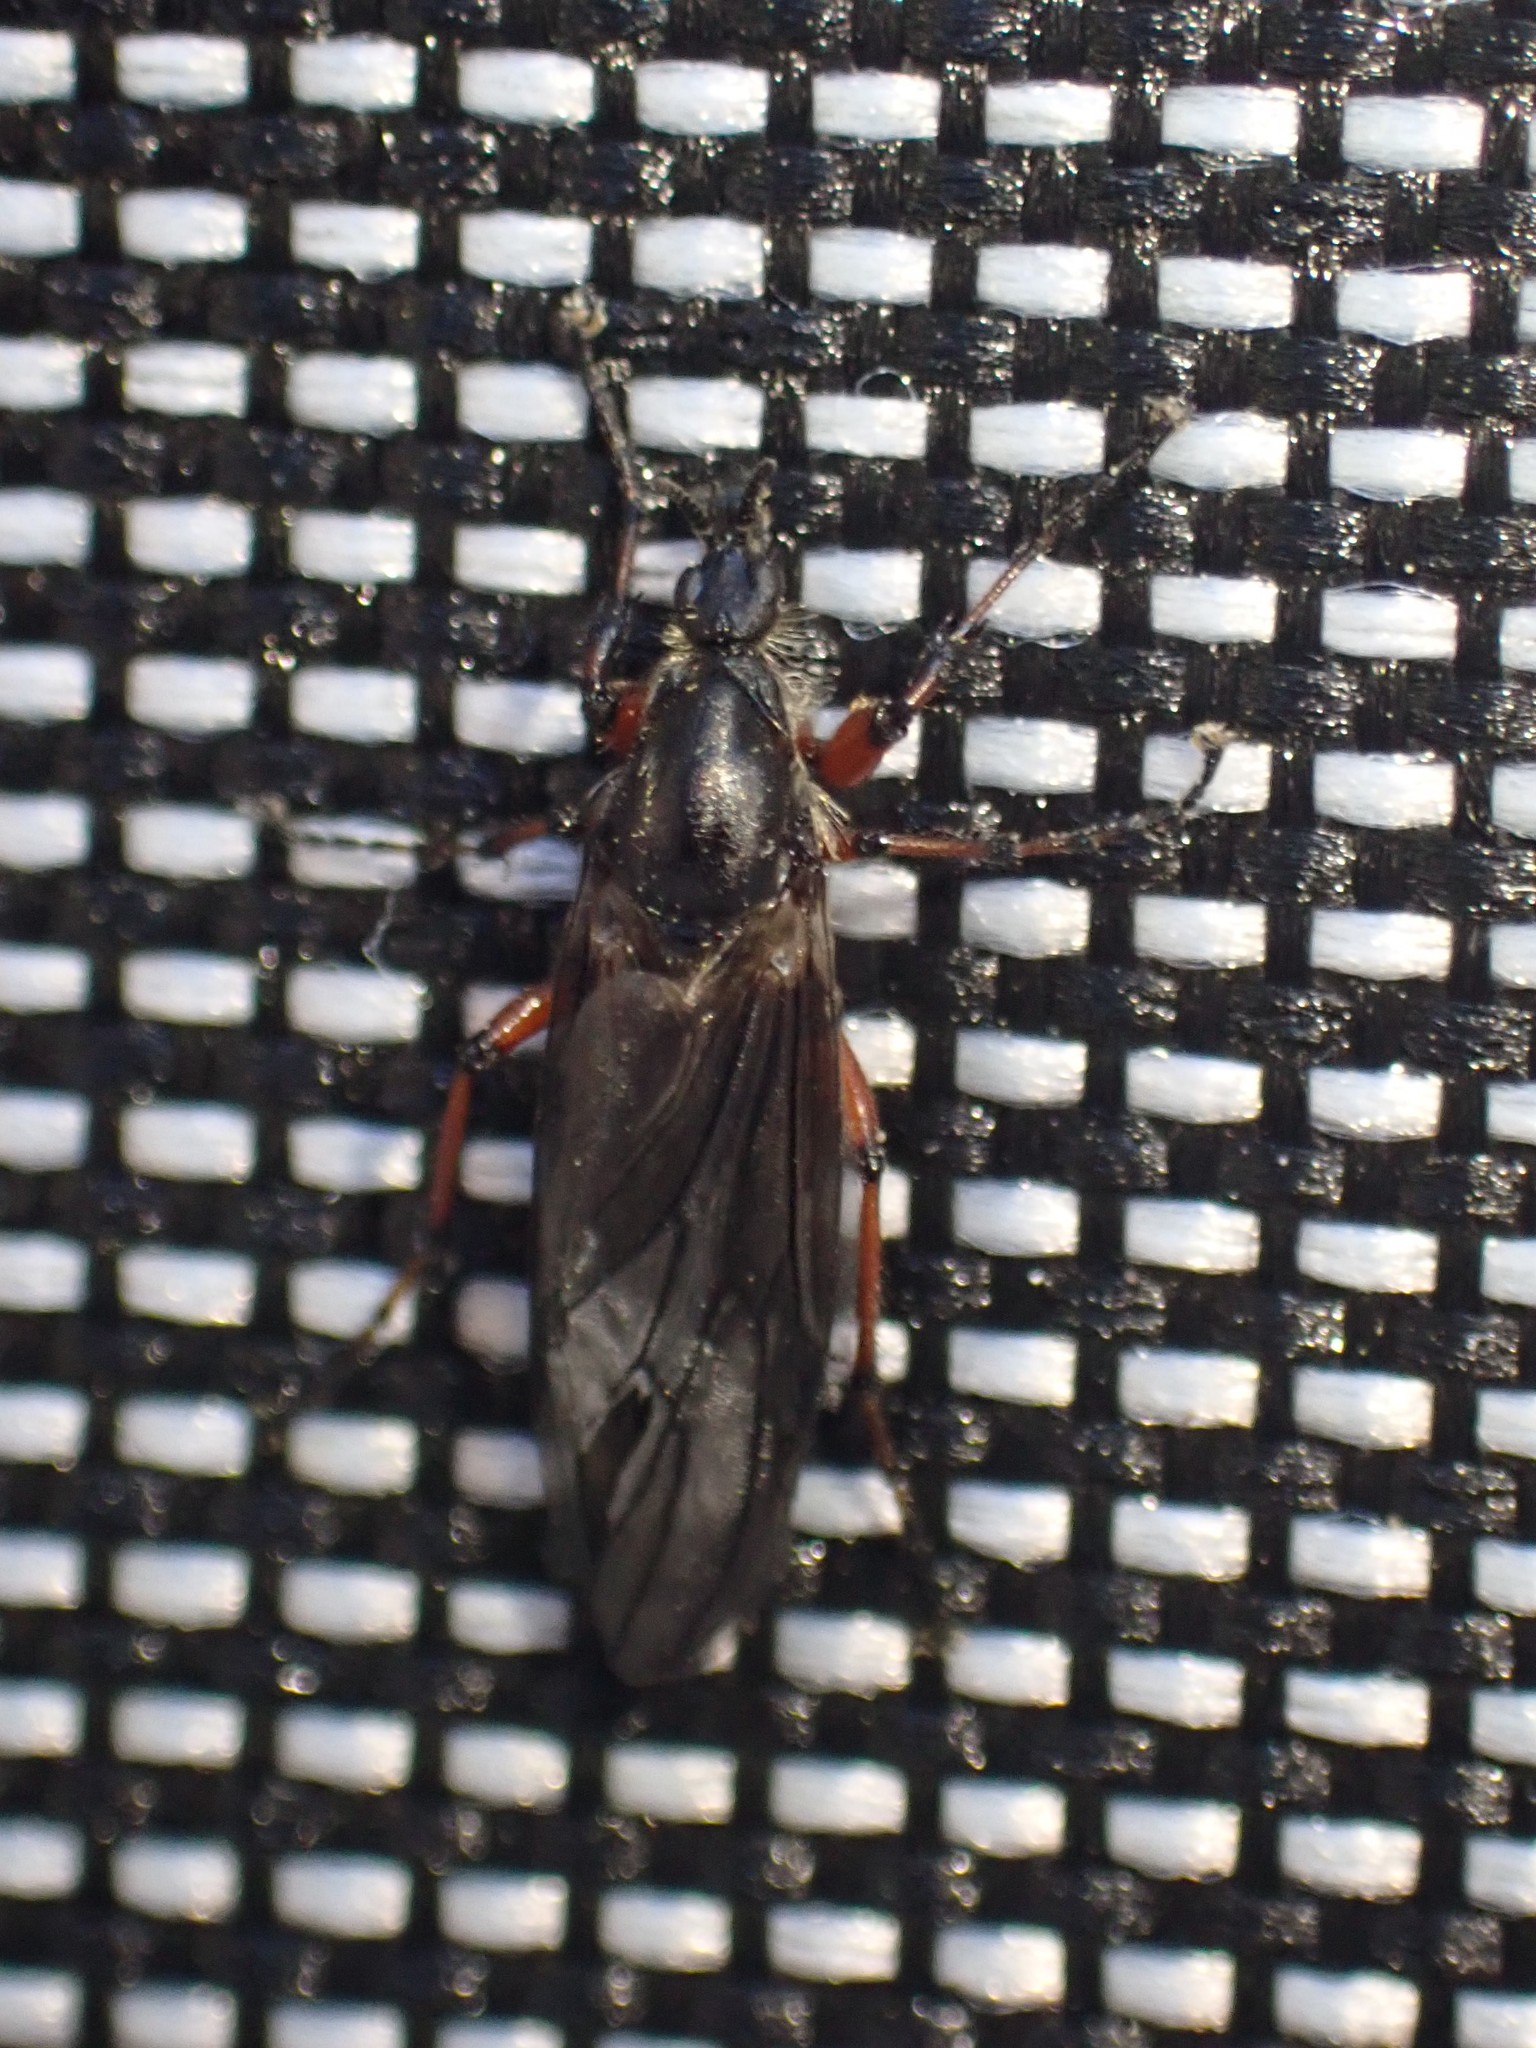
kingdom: Animalia
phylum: Arthropoda
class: Insecta
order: Diptera
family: Bibionidae
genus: Bibio
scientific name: Bibio
